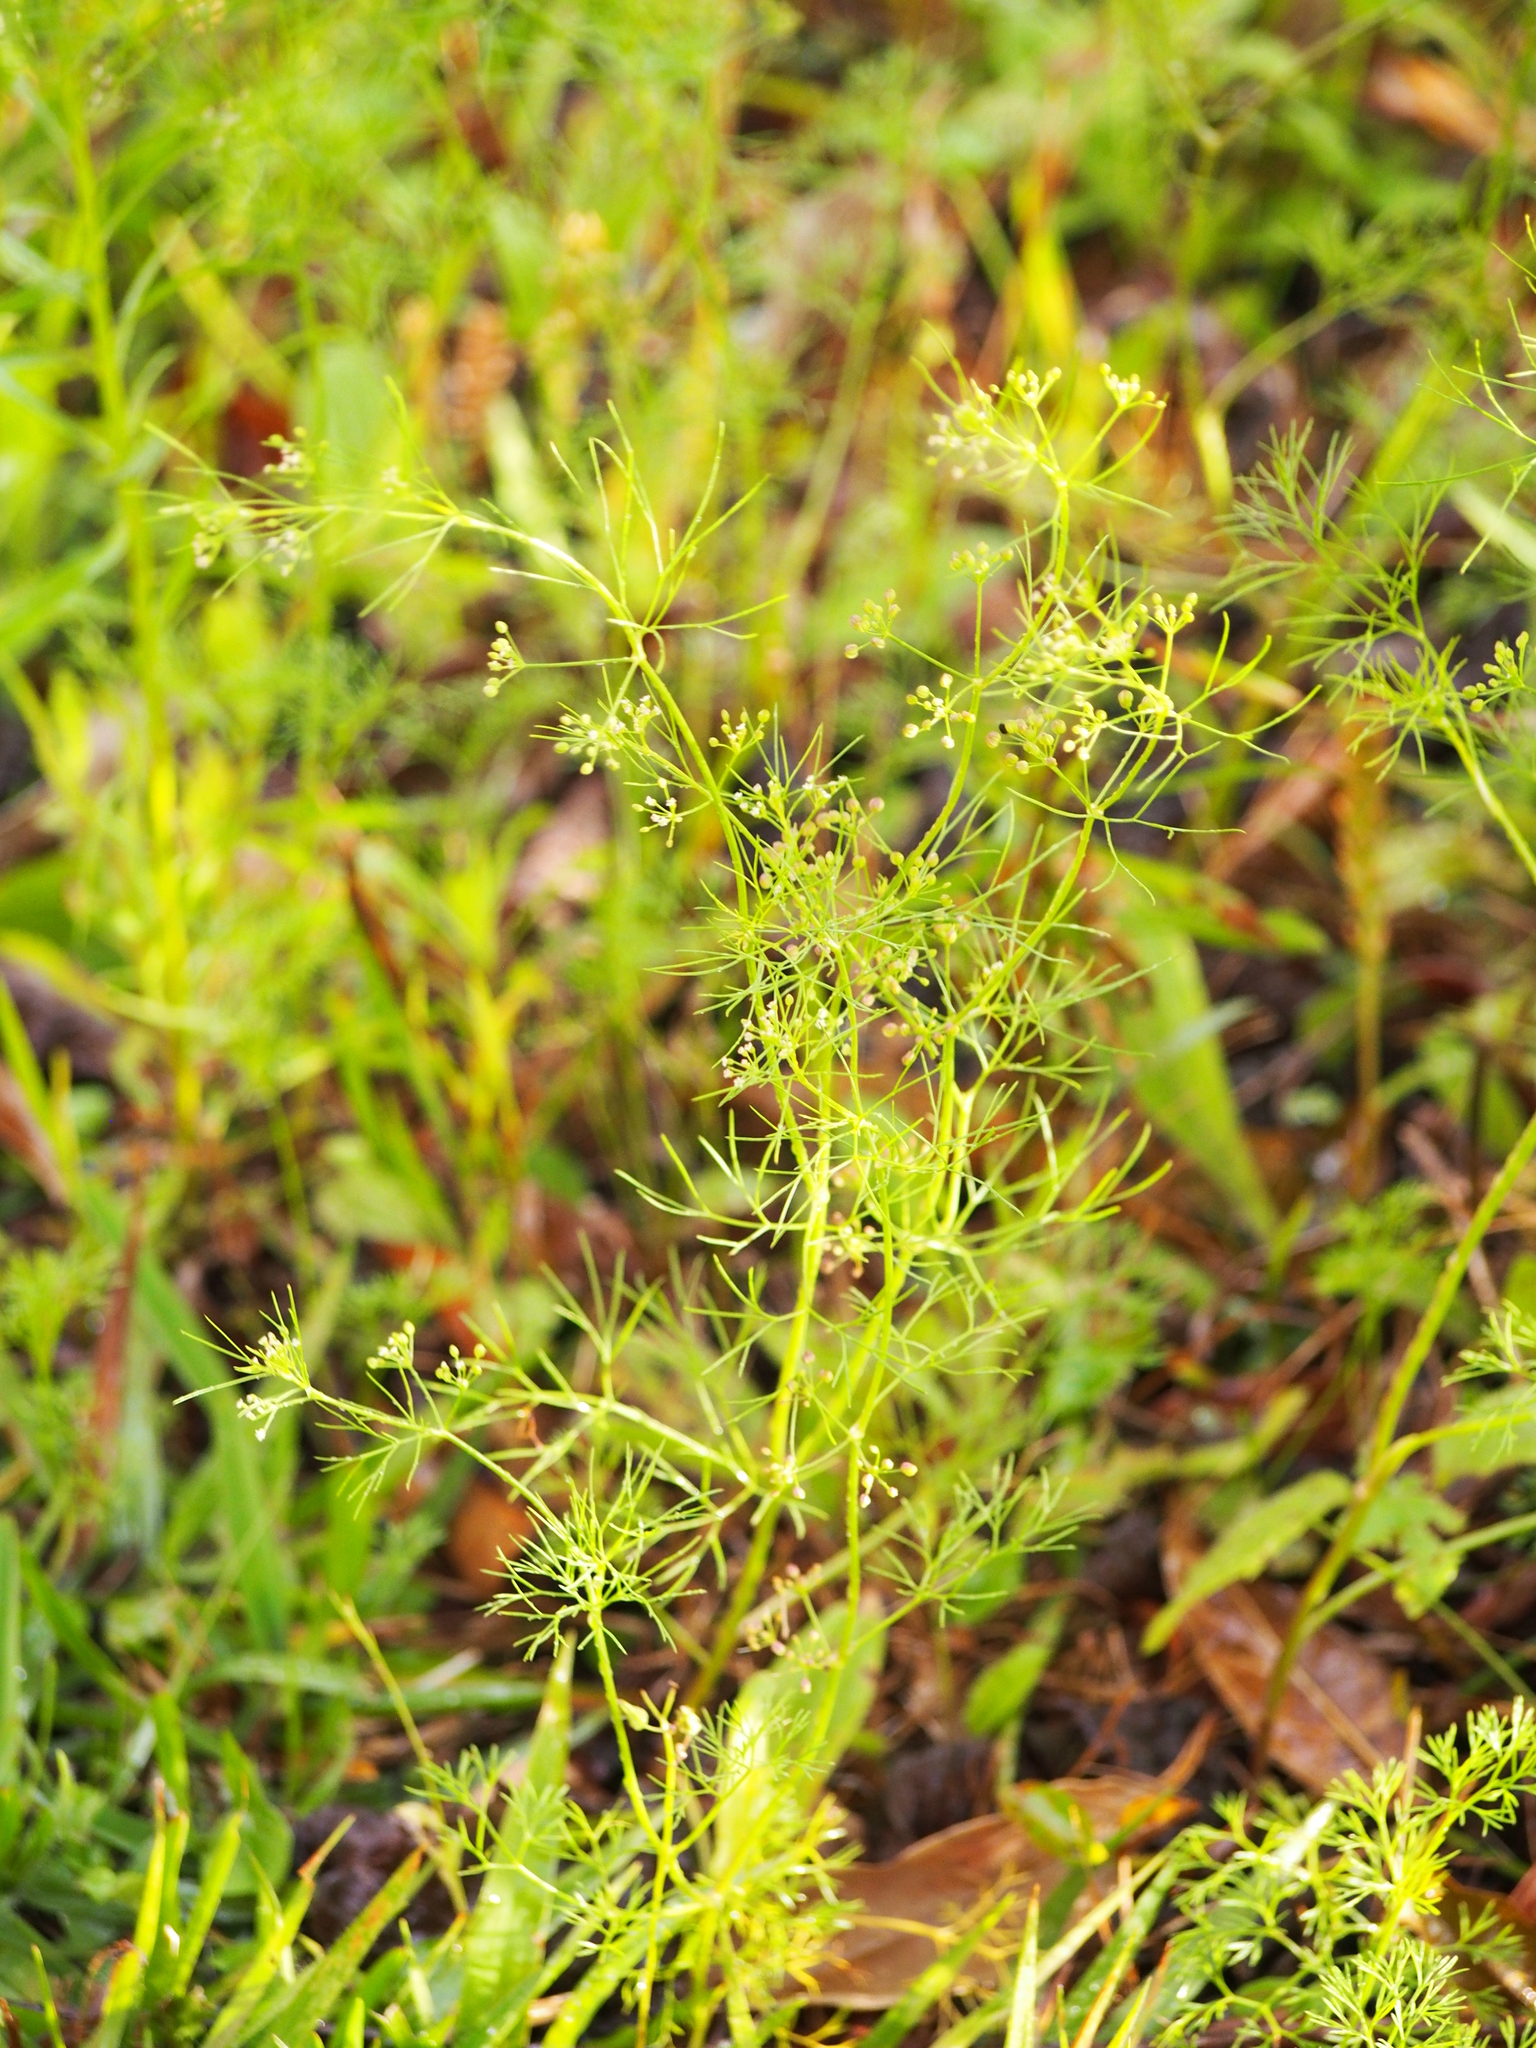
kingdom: Plantae
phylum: Tracheophyta
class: Magnoliopsida
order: Apiales
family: Apiaceae
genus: Cyclospermum
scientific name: Cyclospermum leptophyllum
